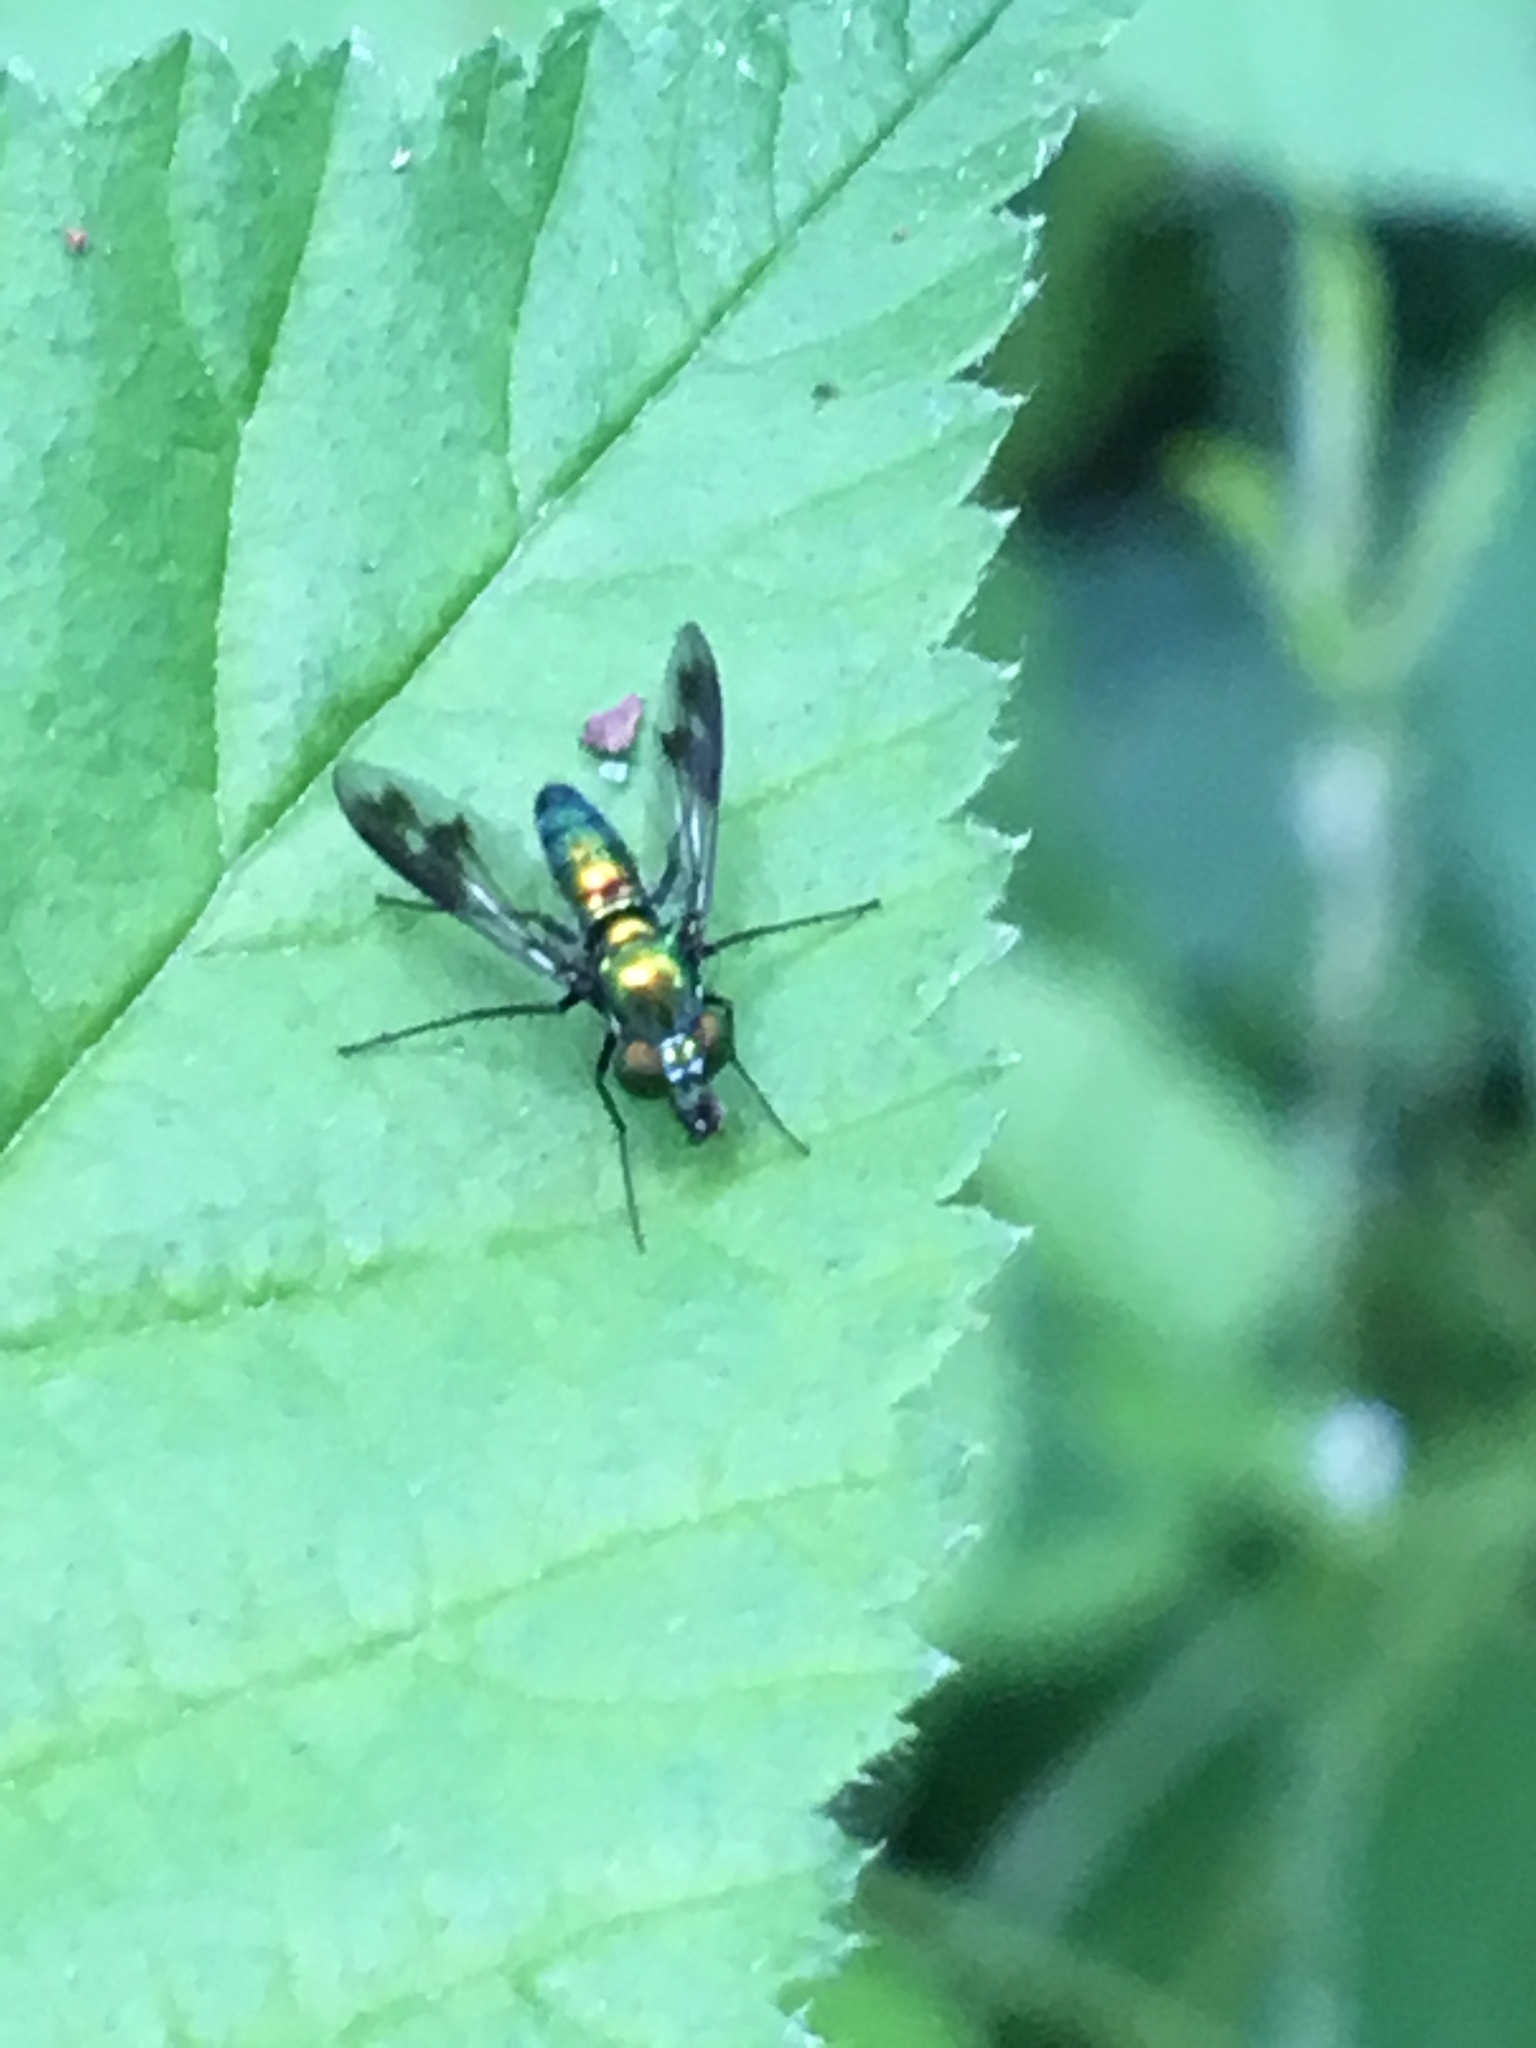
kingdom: Animalia
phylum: Arthropoda
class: Insecta
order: Diptera
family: Dolichopodidae
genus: Condylostylus
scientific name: Condylostylus patibulatus
